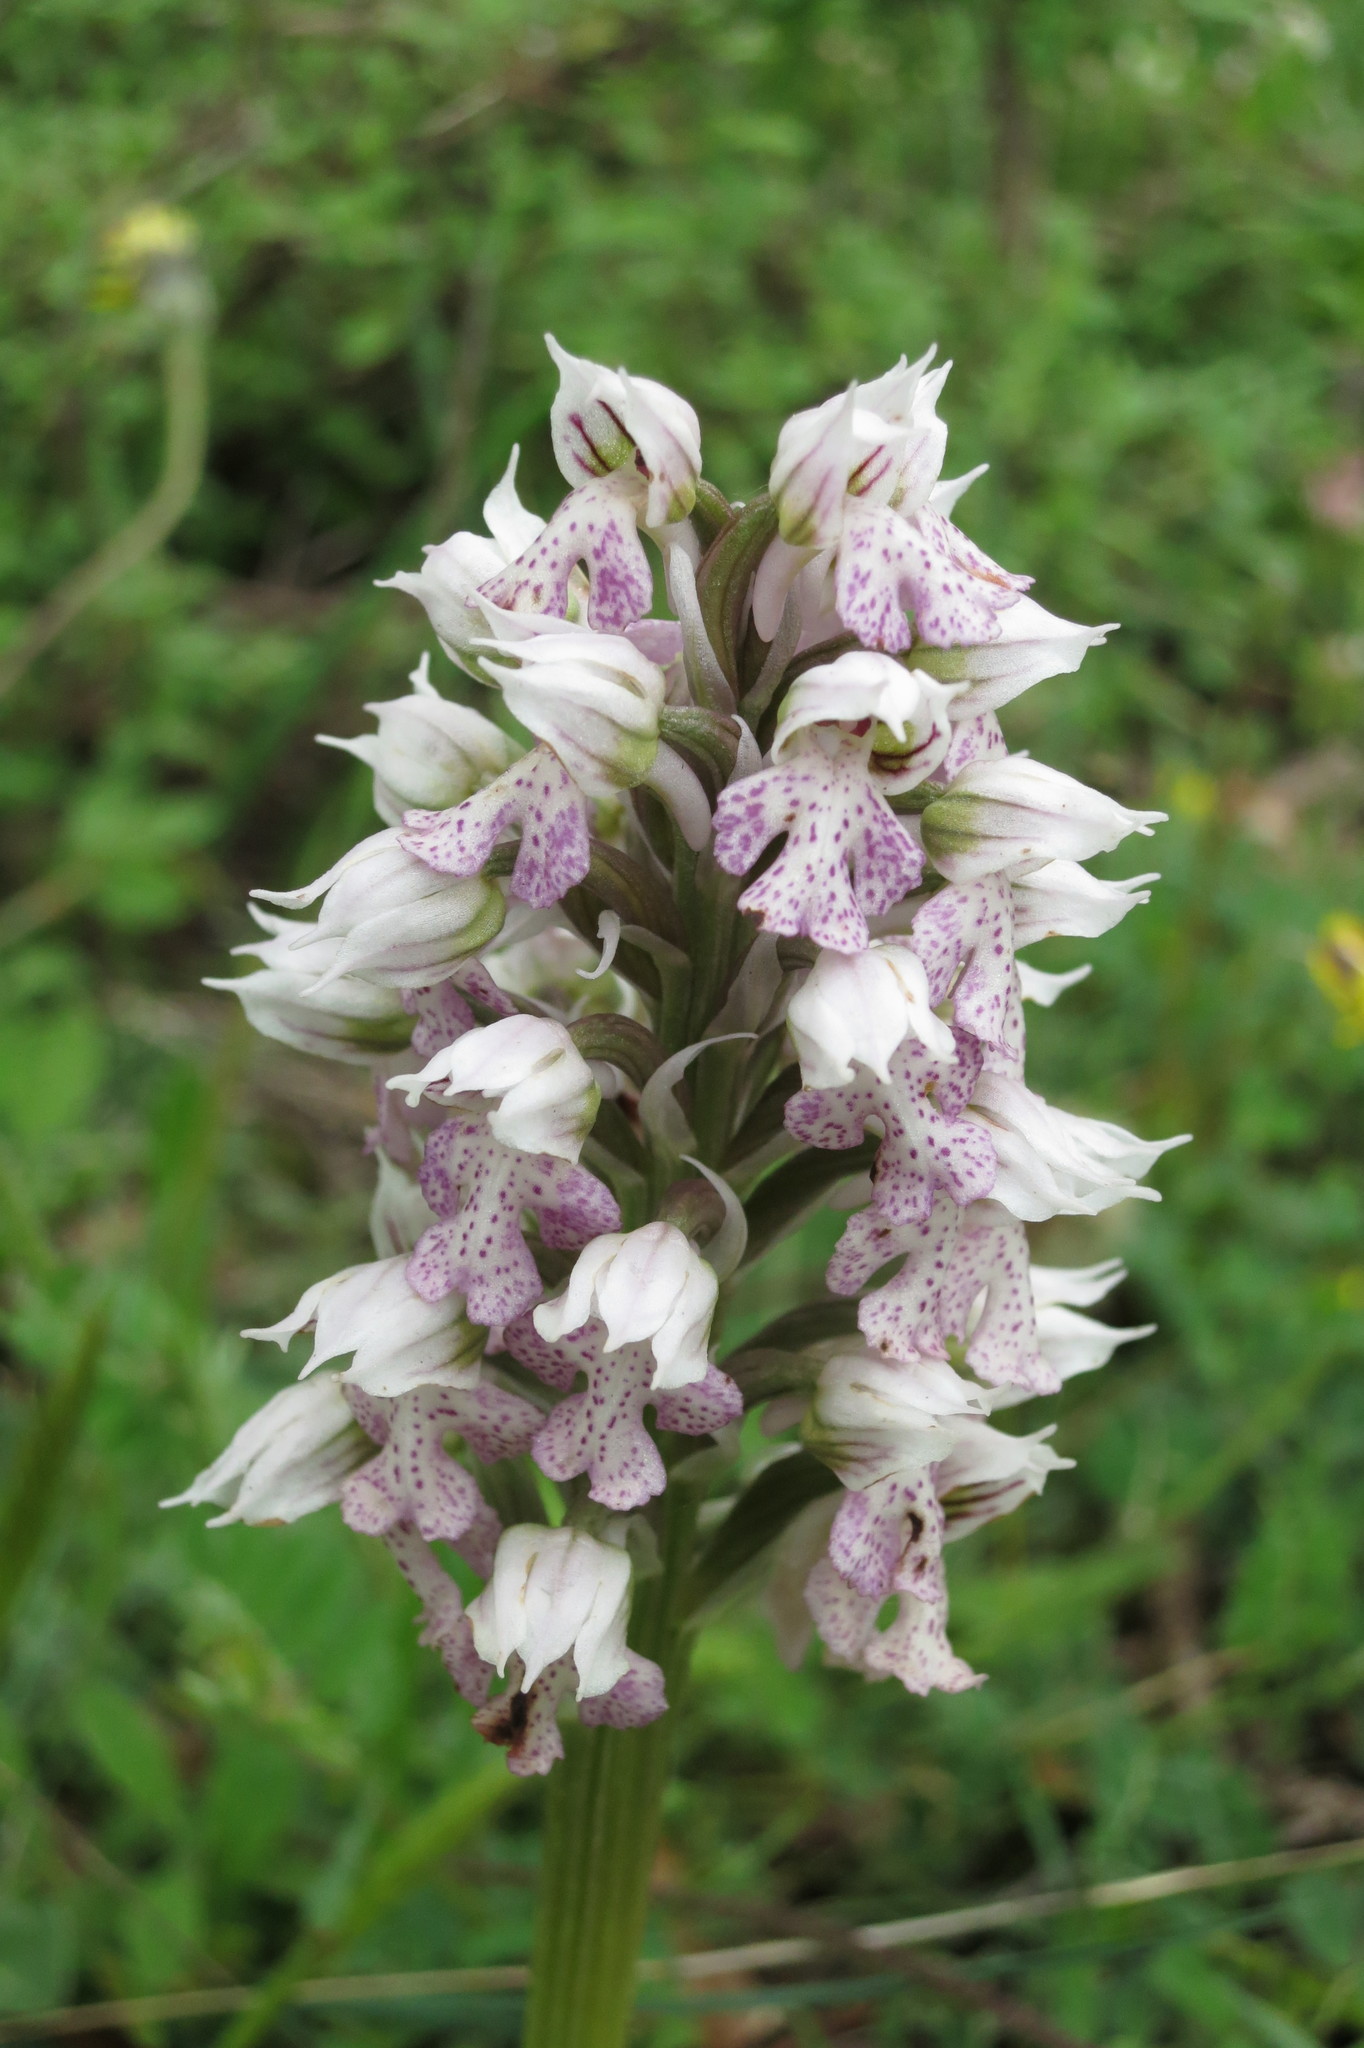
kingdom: Plantae
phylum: Tracheophyta
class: Liliopsida
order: Asparagales
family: Orchidaceae
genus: Neotinea
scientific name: Neotinea lactea
